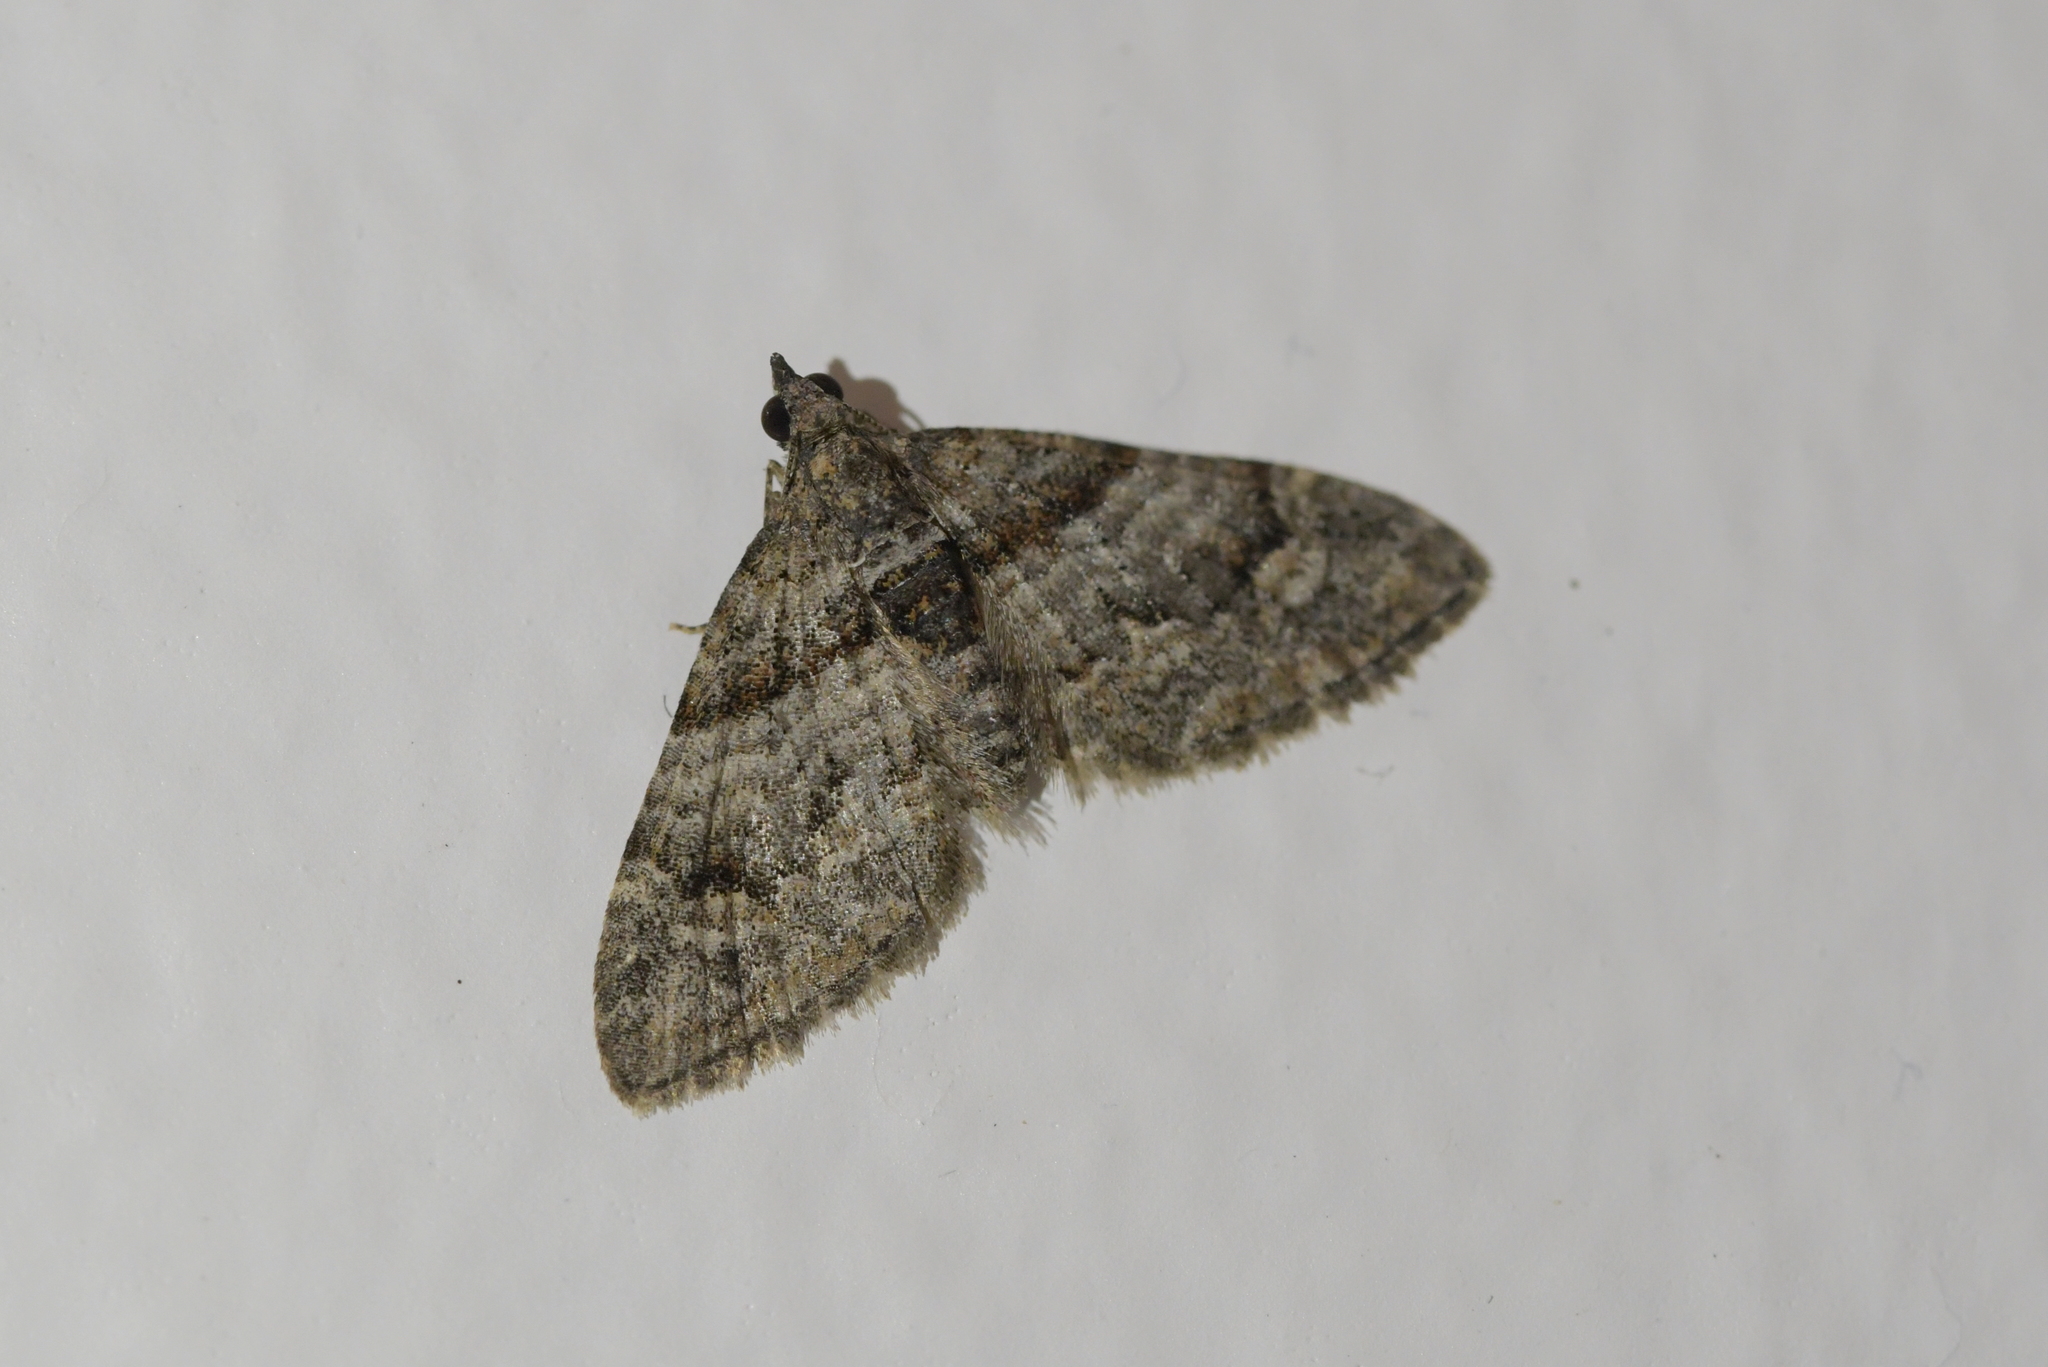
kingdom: Animalia
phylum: Arthropoda
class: Insecta
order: Lepidoptera
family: Geometridae
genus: Phrissogonus
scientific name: Phrissogonus laticostata
